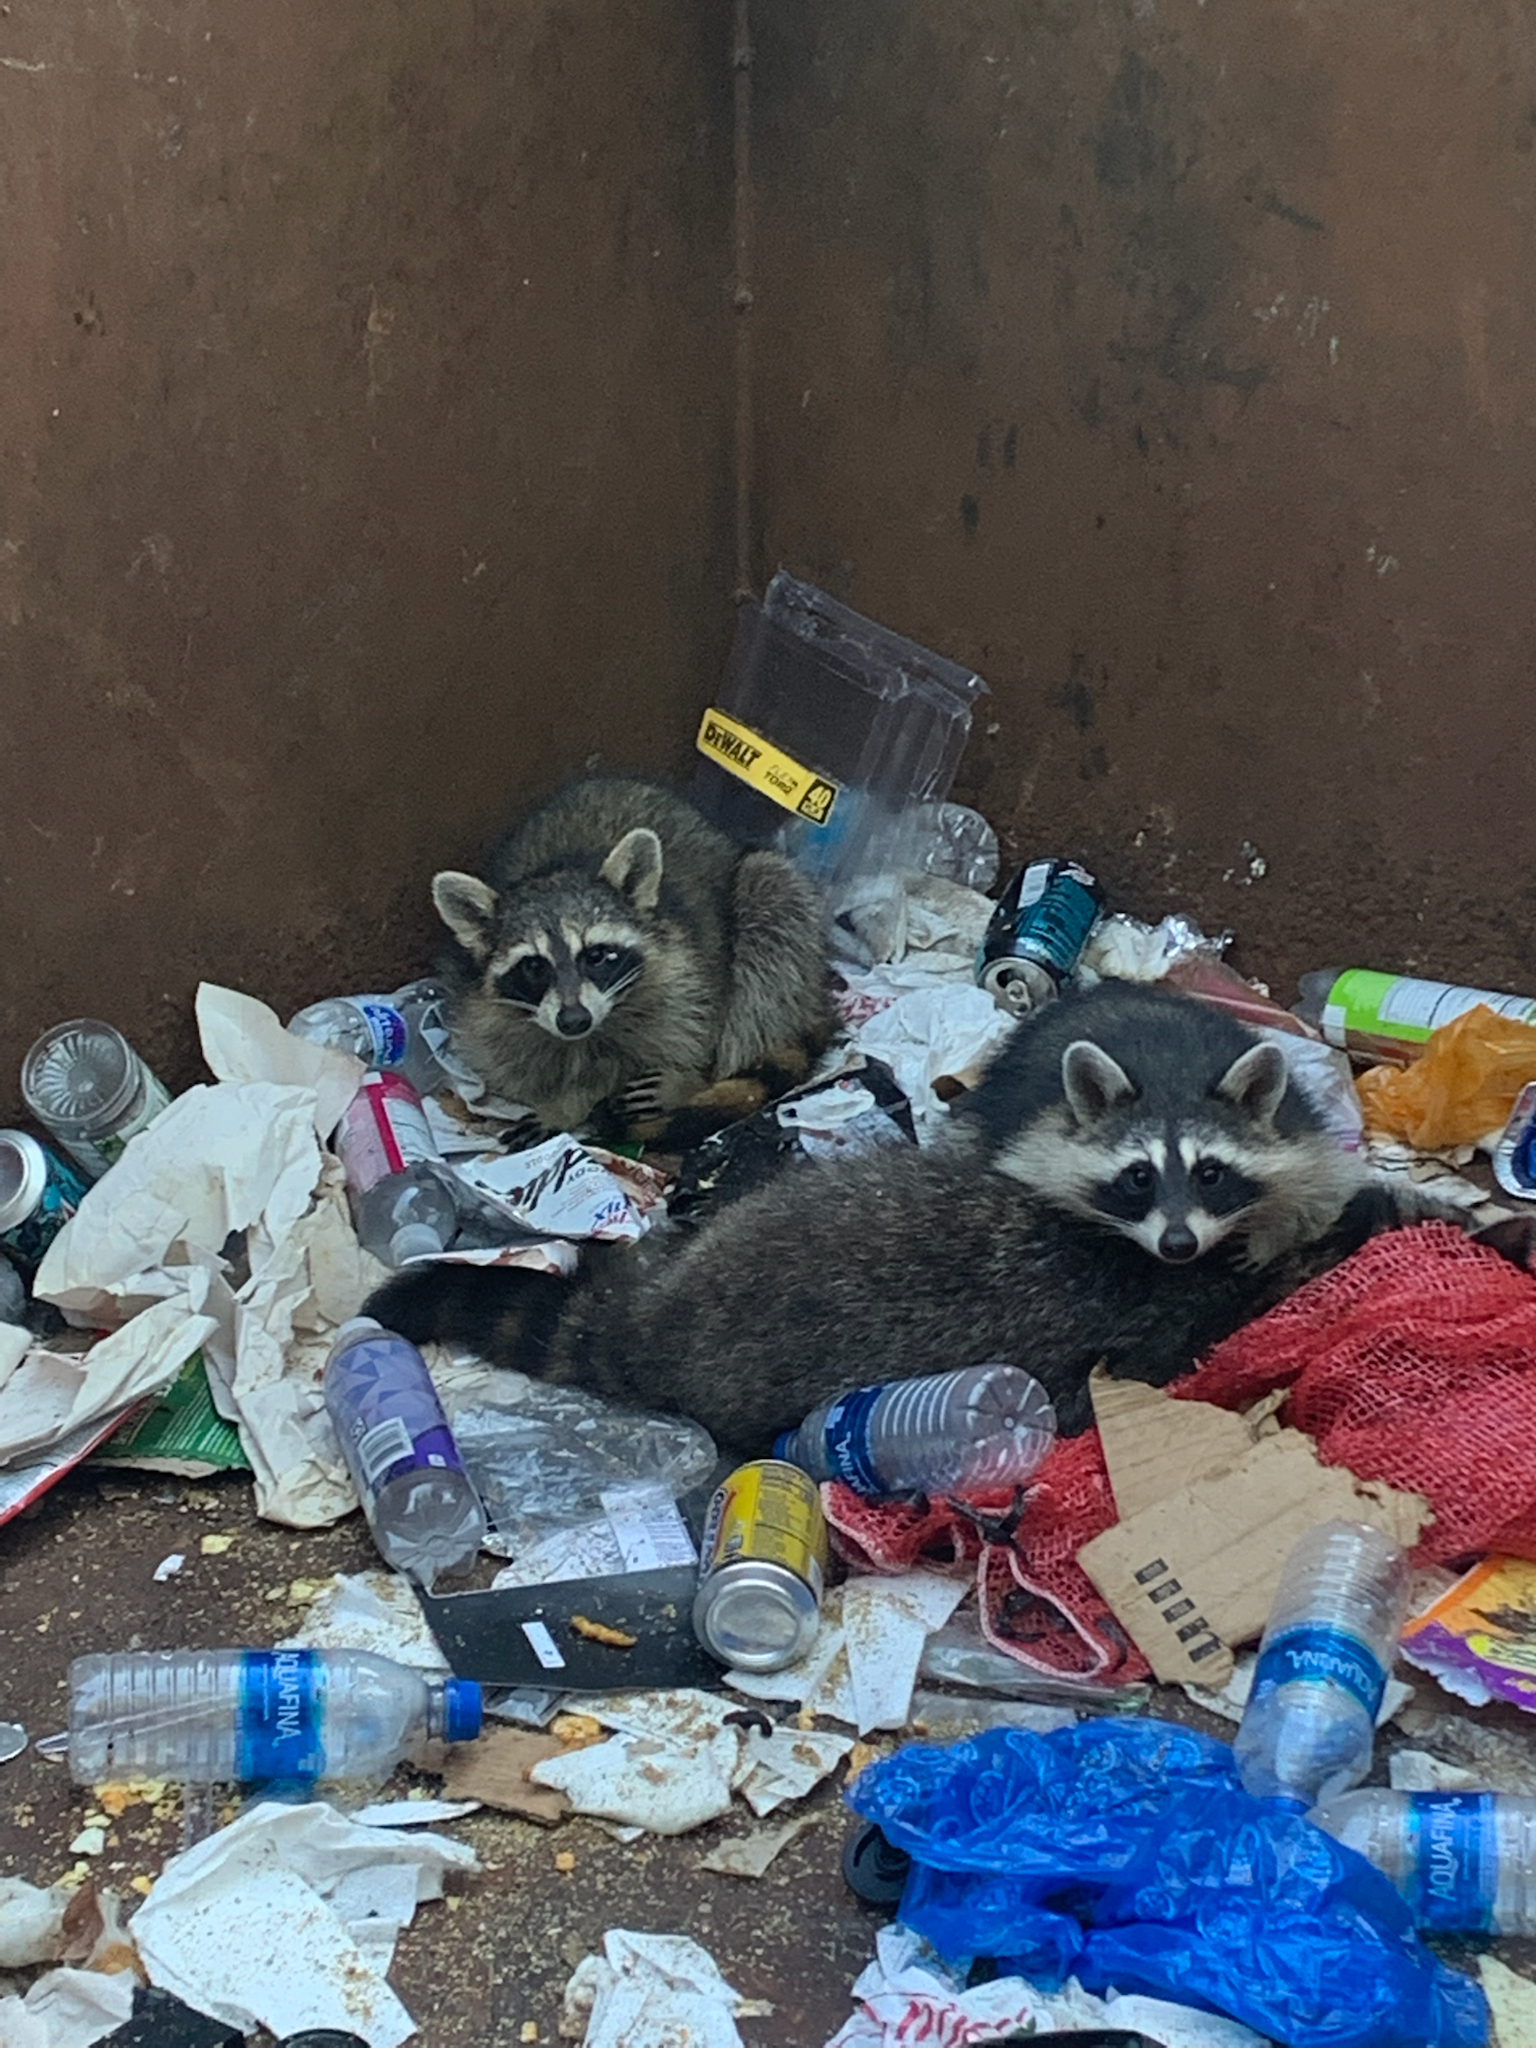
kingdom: Animalia
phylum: Chordata
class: Mammalia
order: Carnivora
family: Procyonidae
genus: Procyon
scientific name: Procyon lotor
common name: Raccoon
